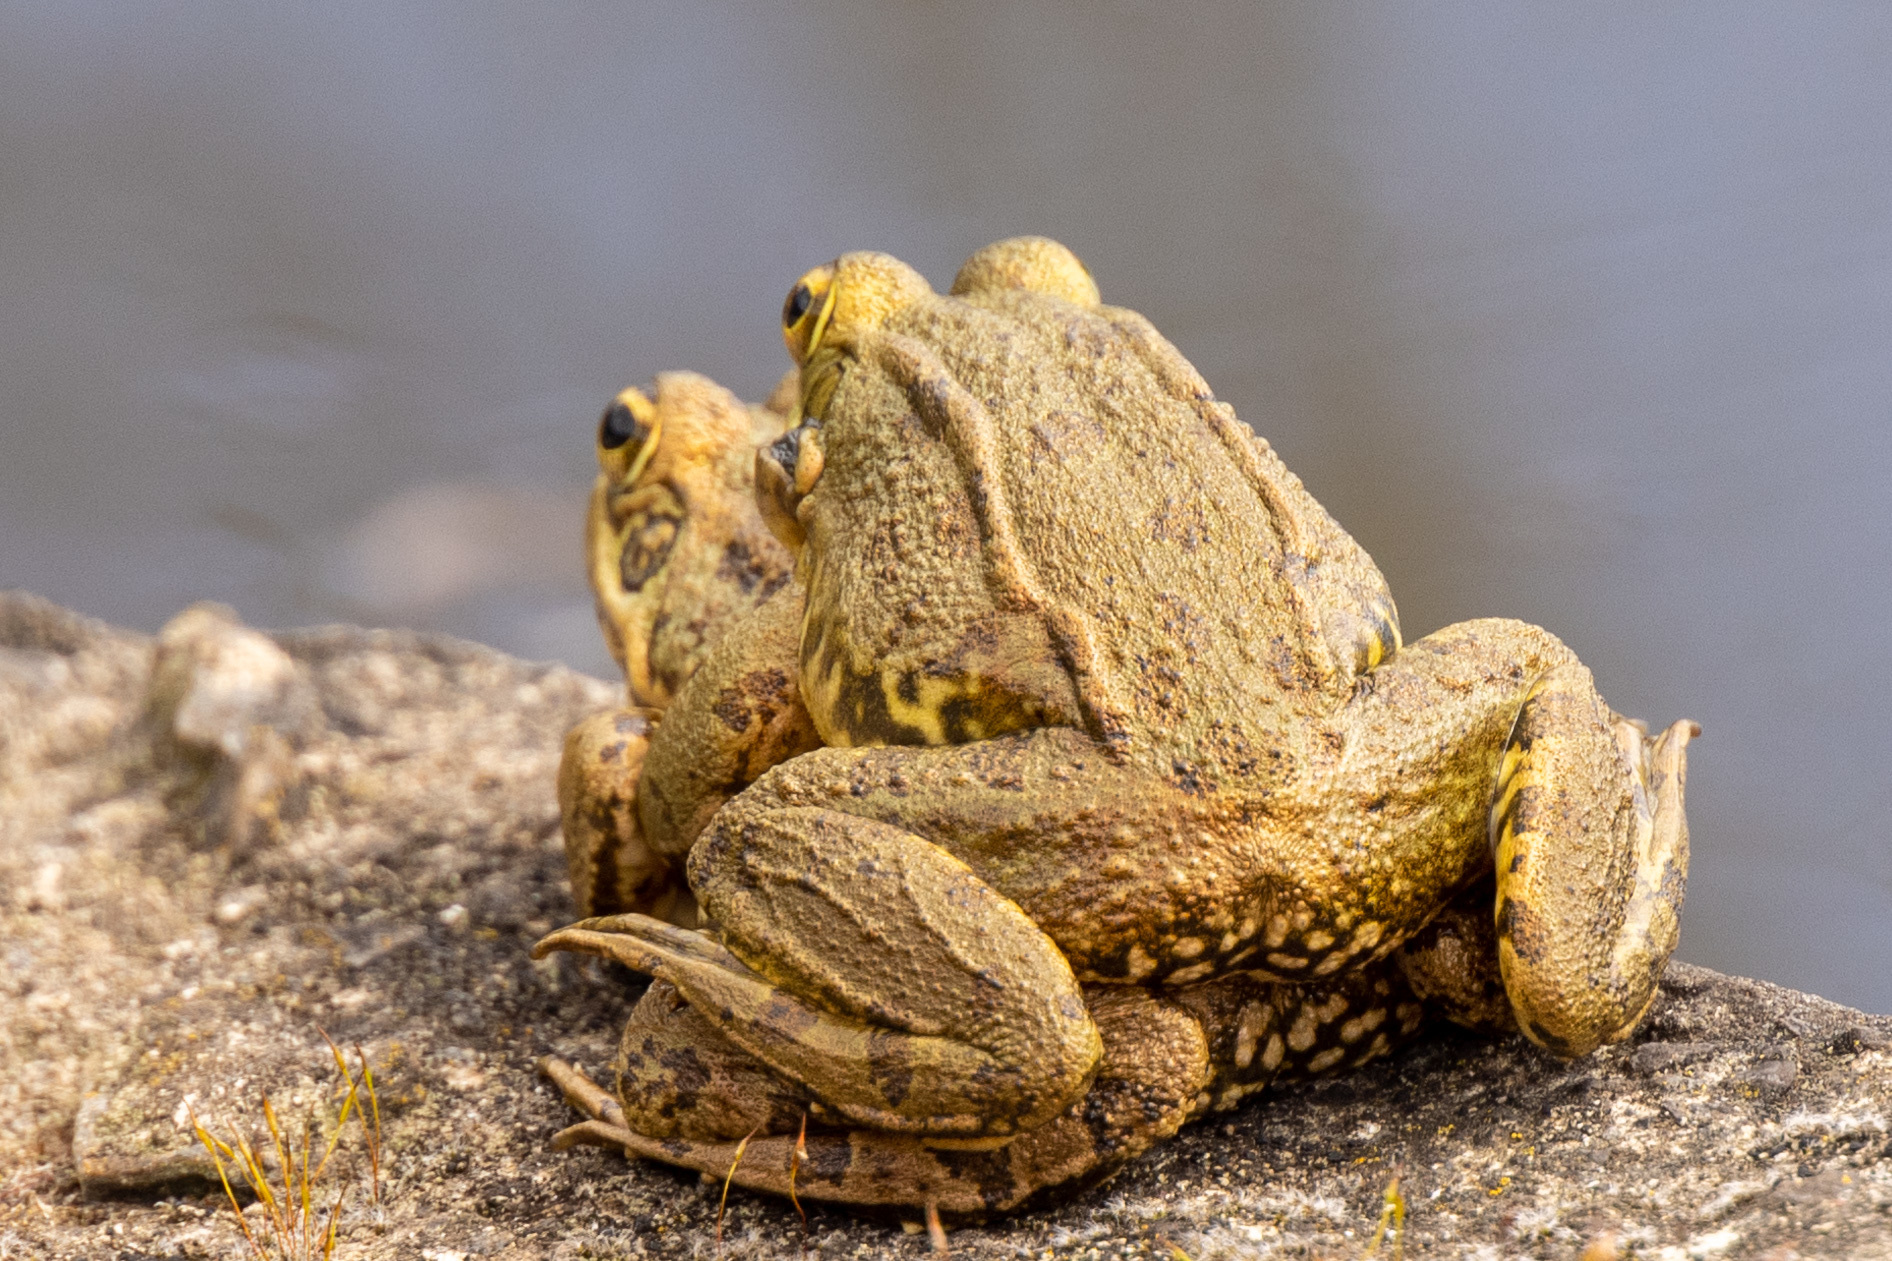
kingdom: Animalia
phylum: Chordata
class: Amphibia
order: Anura
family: Ranidae
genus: Pelophylax
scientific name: Pelophylax perezi
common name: Perez's frog
